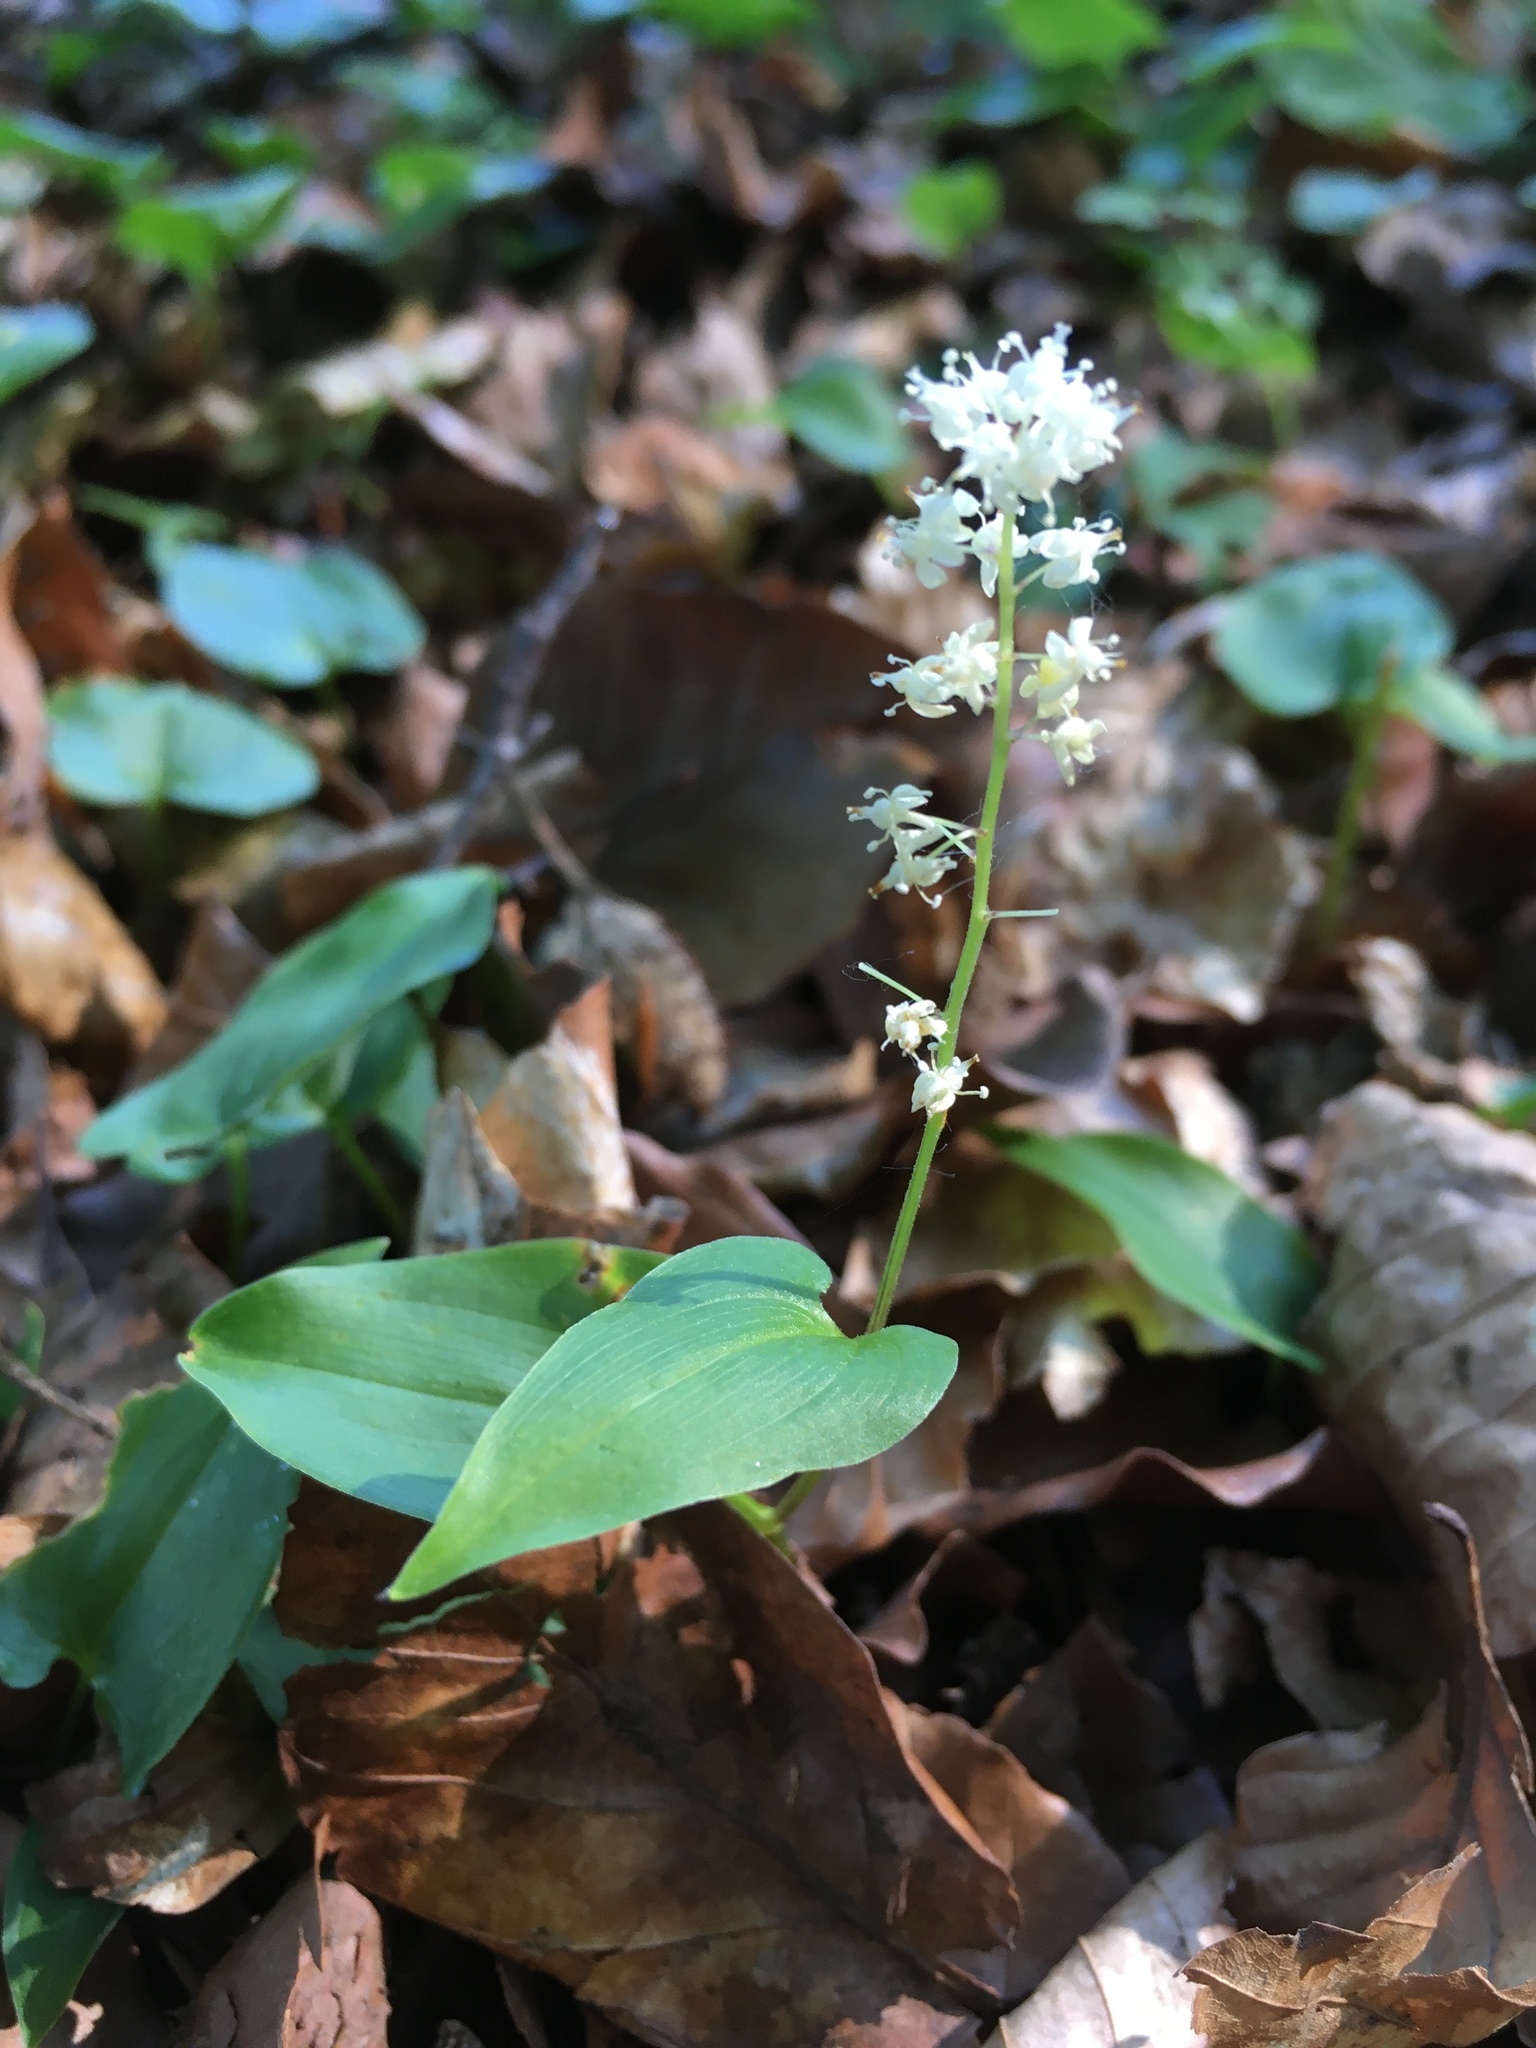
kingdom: Plantae
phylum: Tracheophyta
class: Liliopsida
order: Asparagales
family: Asparagaceae
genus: Maianthemum
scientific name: Maianthemum bifolium
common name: May lily
